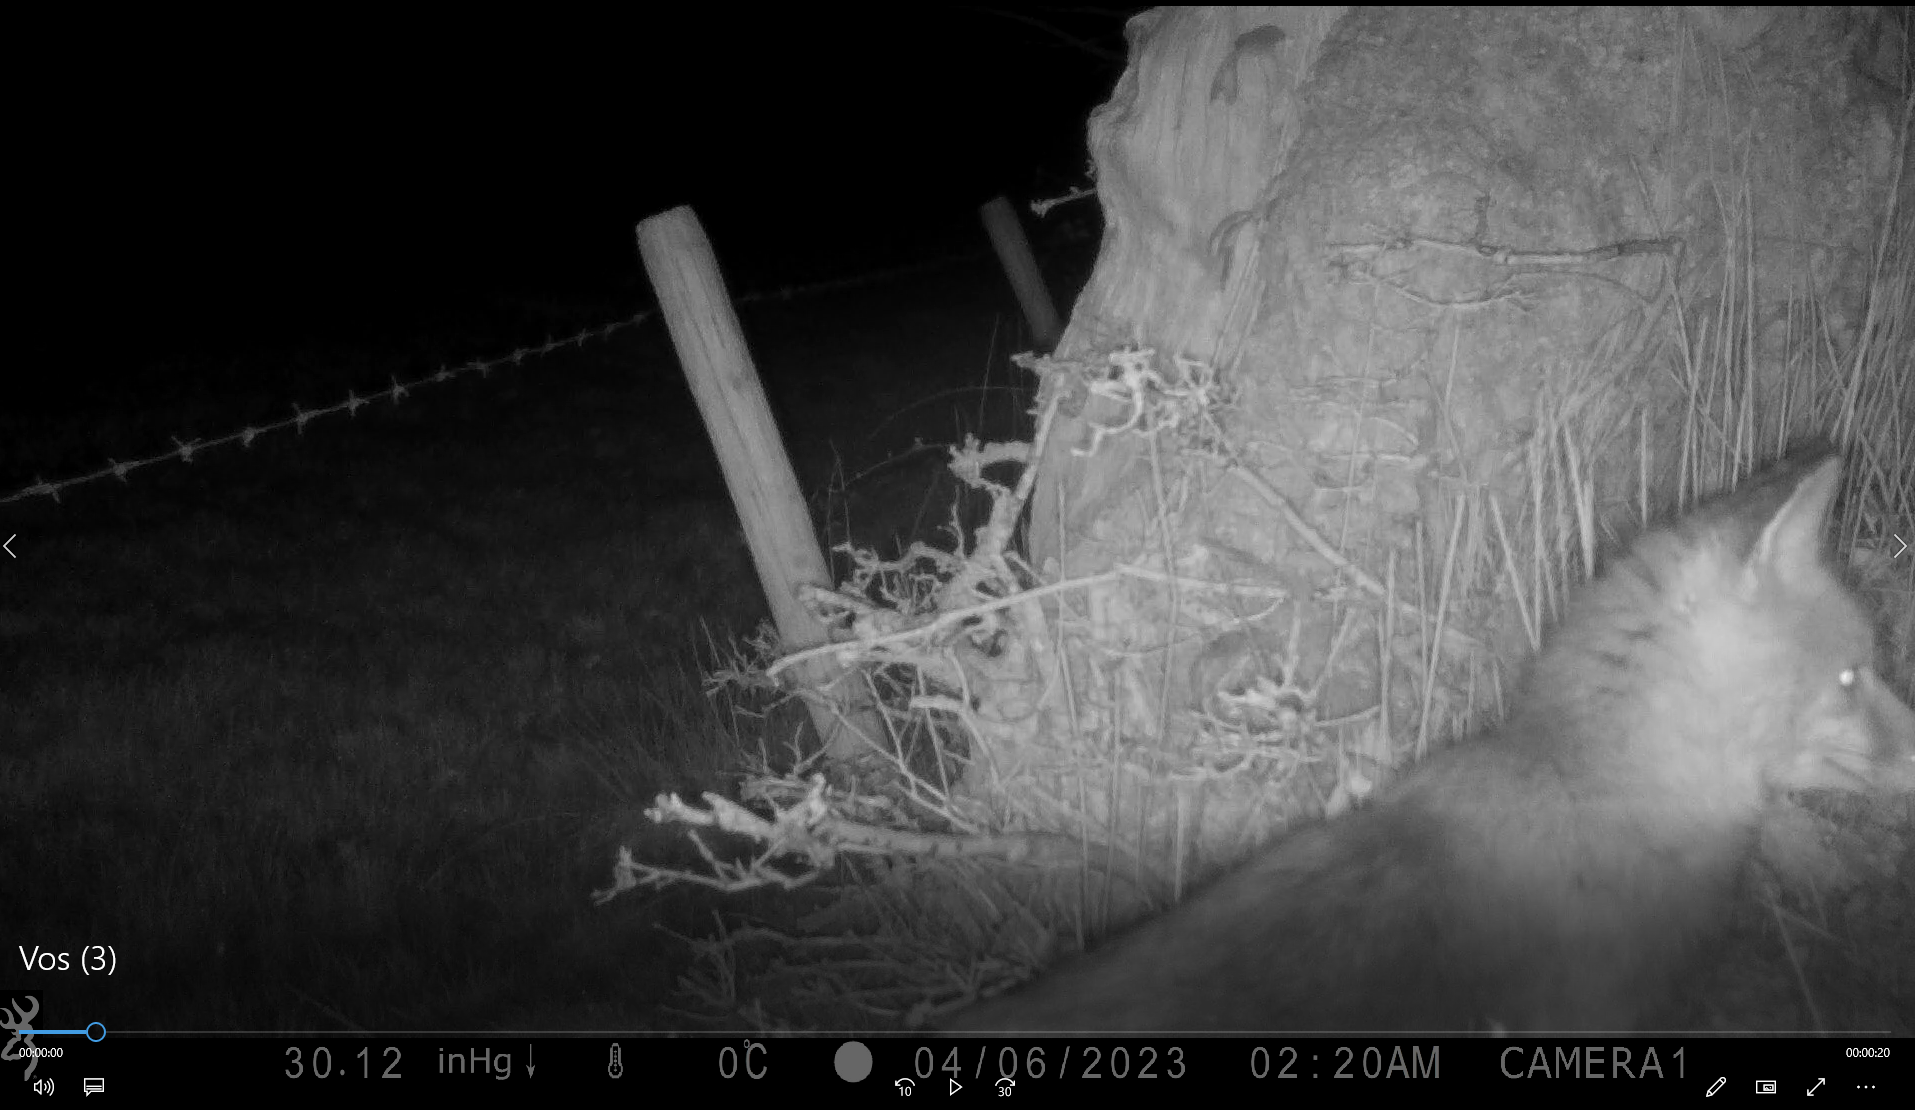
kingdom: Animalia
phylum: Chordata
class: Mammalia
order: Carnivora
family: Canidae
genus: Vulpes
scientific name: Vulpes vulpes
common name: Red fox
